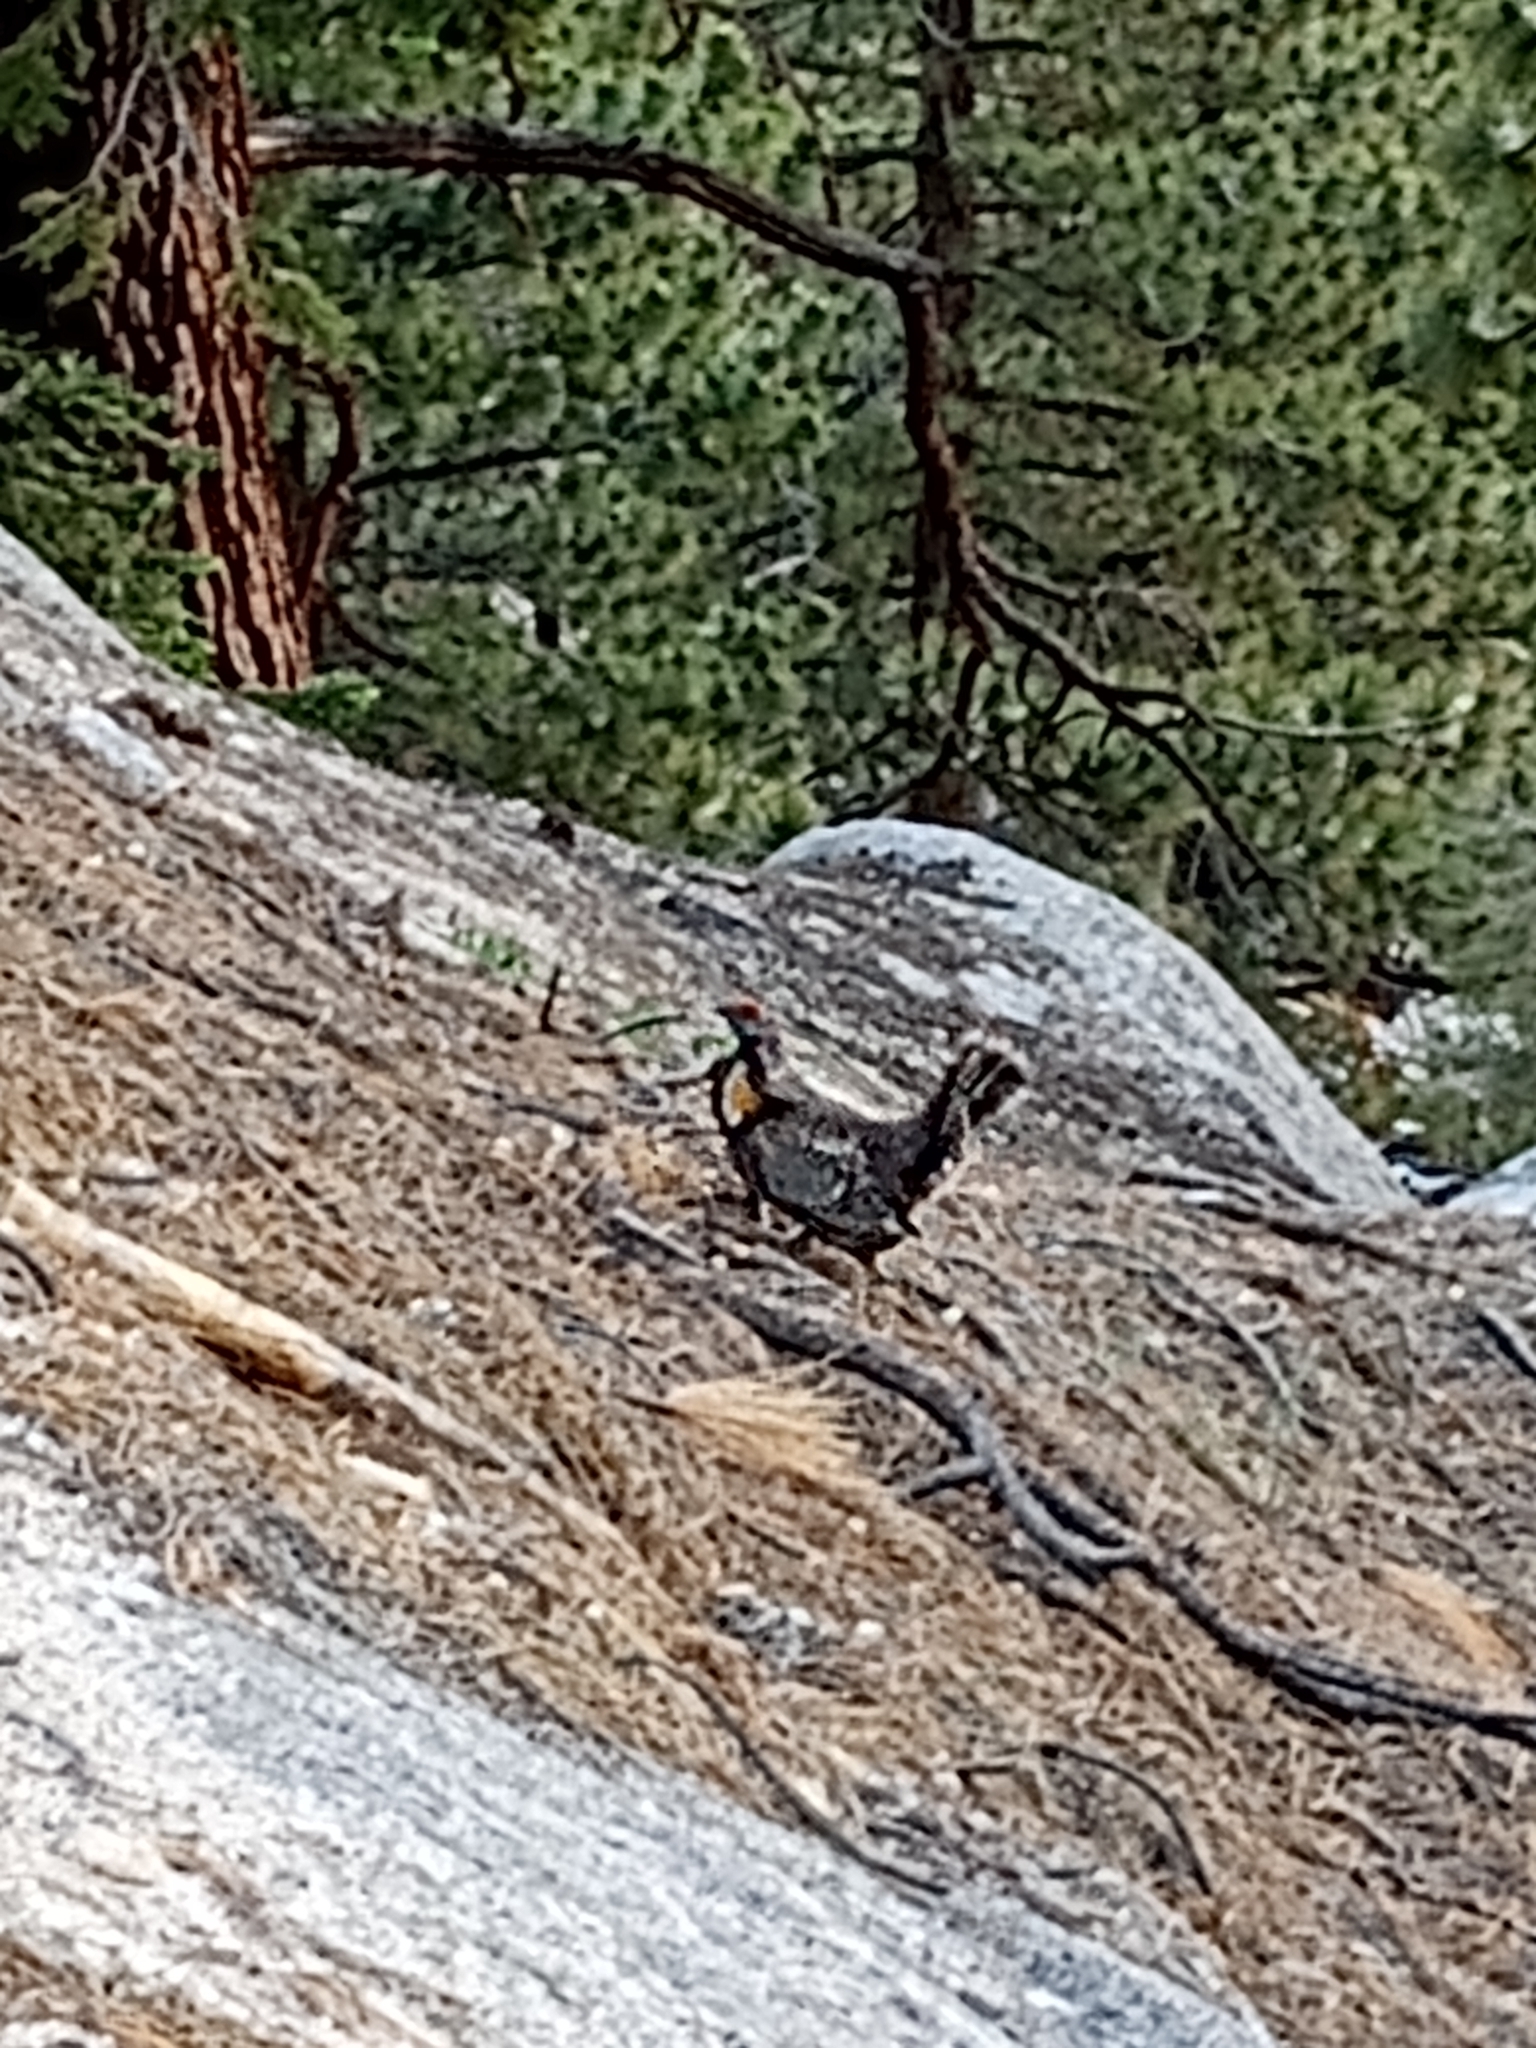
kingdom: Animalia
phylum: Chordata
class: Aves
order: Galliformes
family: Phasianidae
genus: Dendragapus
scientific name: Dendragapus fuliginosus
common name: Sooty grouse
